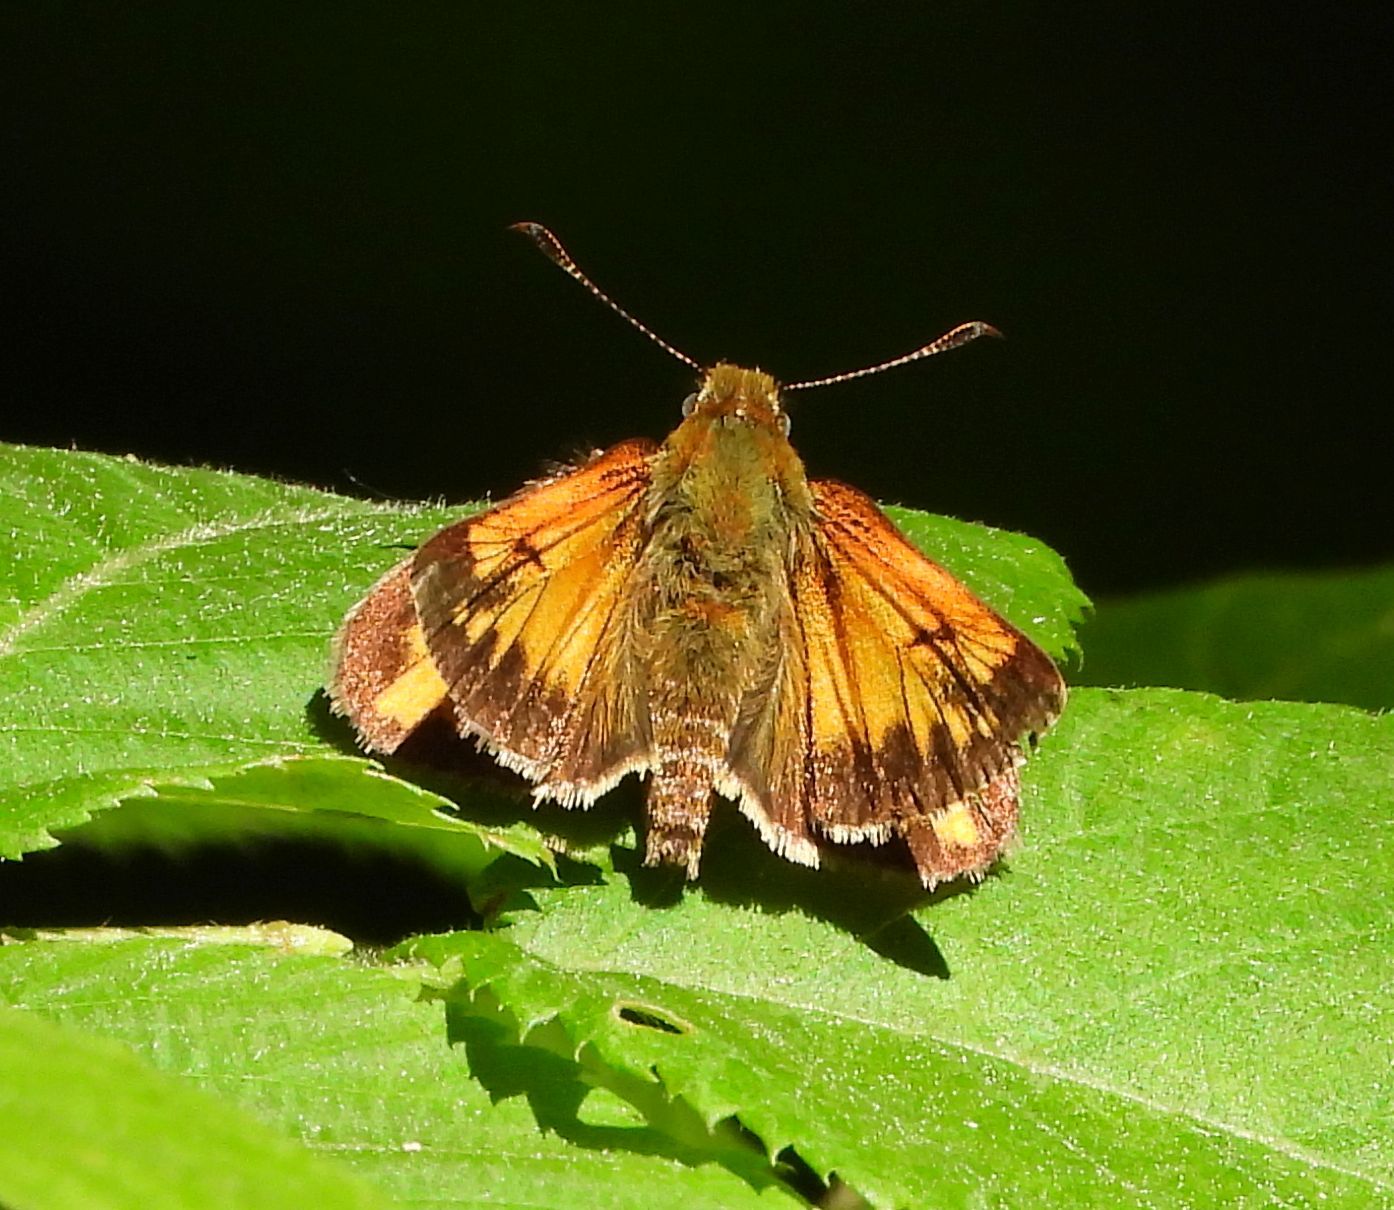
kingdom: Animalia
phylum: Arthropoda
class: Insecta
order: Lepidoptera
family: Hesperiidae
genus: Lon
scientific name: Lon hobomok
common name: Hobomok skipper
